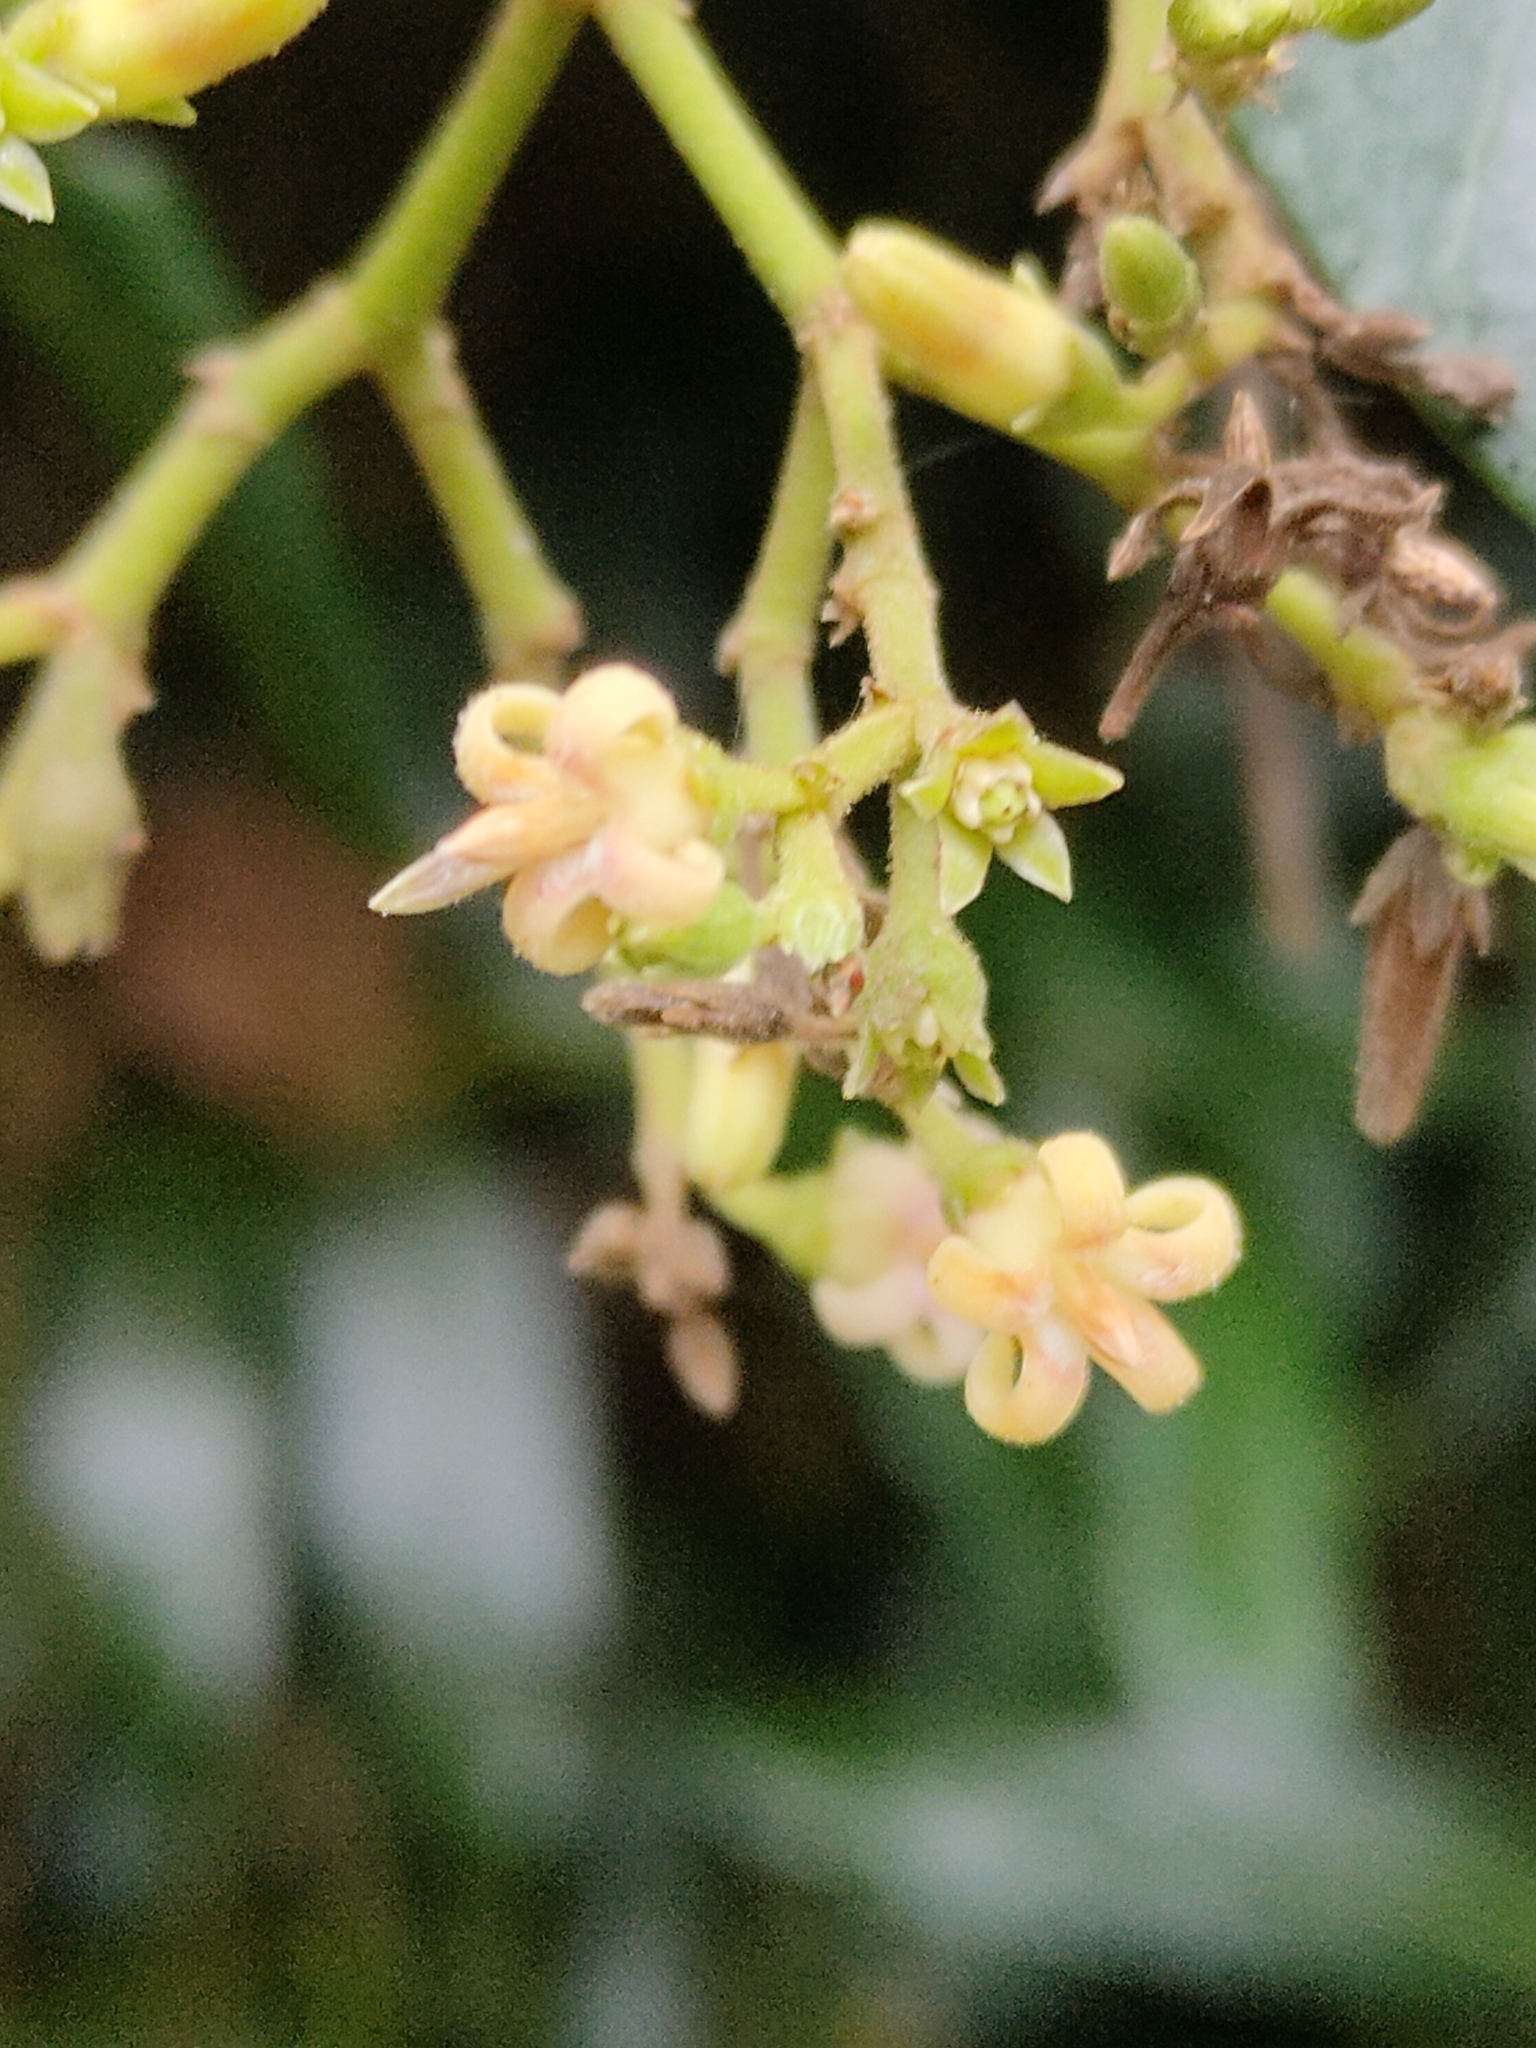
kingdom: Plantae
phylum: Tracheophyta
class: Magnoliopsida
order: Gentianales
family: Apocynaceae
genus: Parsonsia
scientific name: Parsonsia straminea
